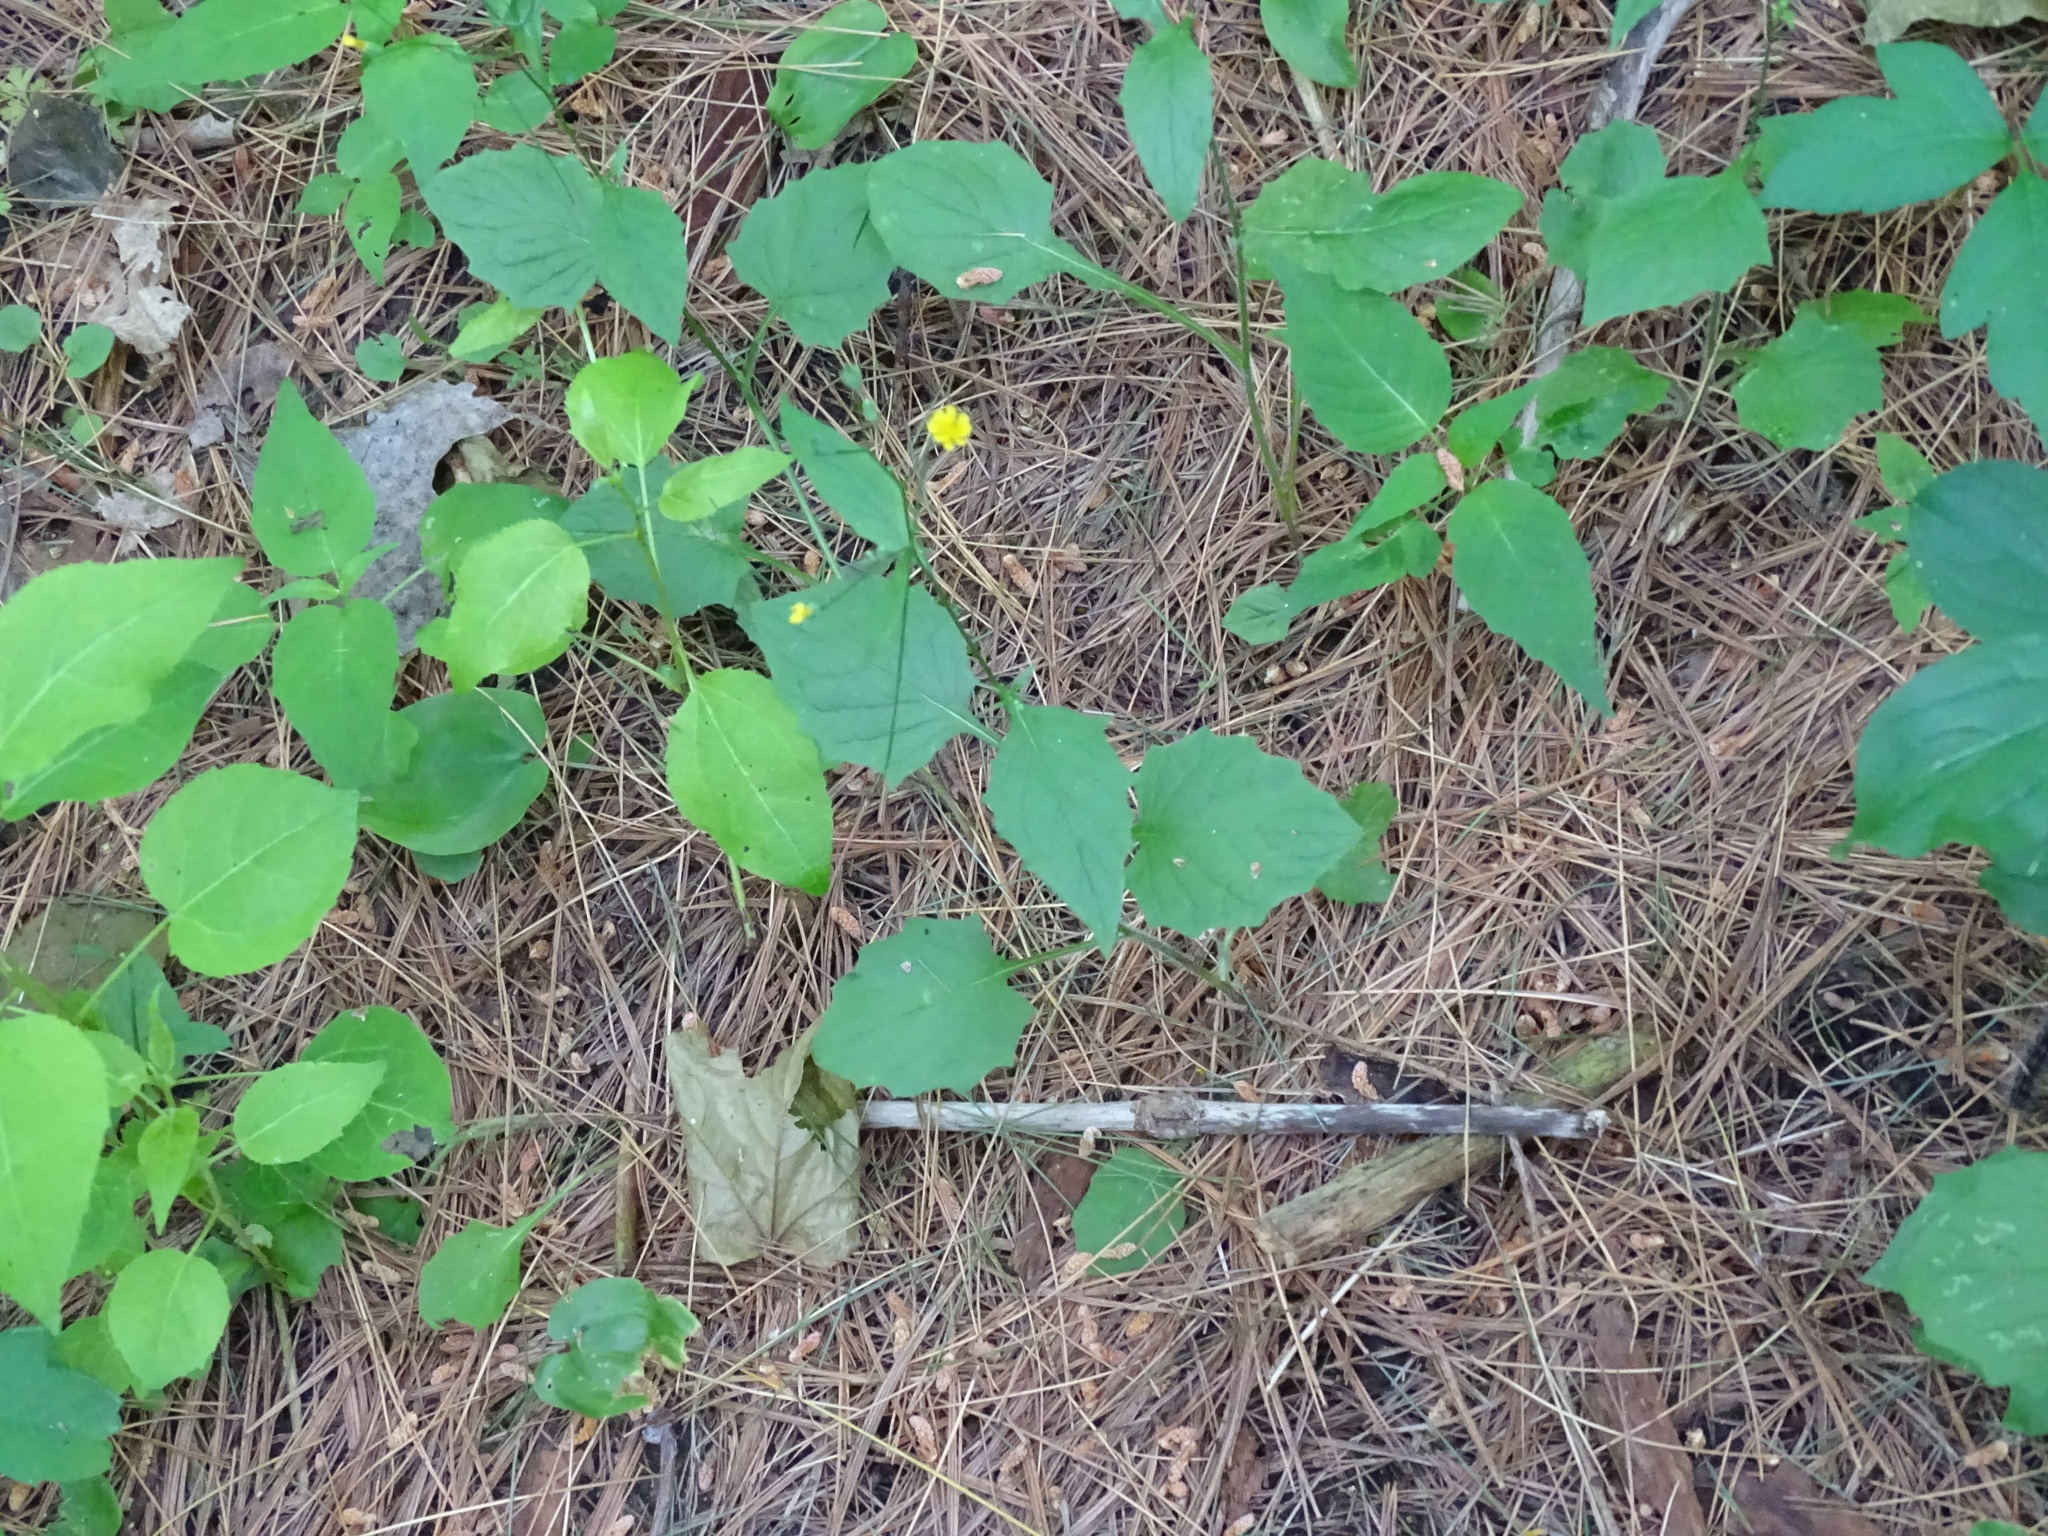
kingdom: Plantae
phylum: Tracheophyta
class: Magnoliopsida
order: Asterales
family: Asteraceae
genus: Lapsana
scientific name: Lapsana communis
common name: Nipplewort
